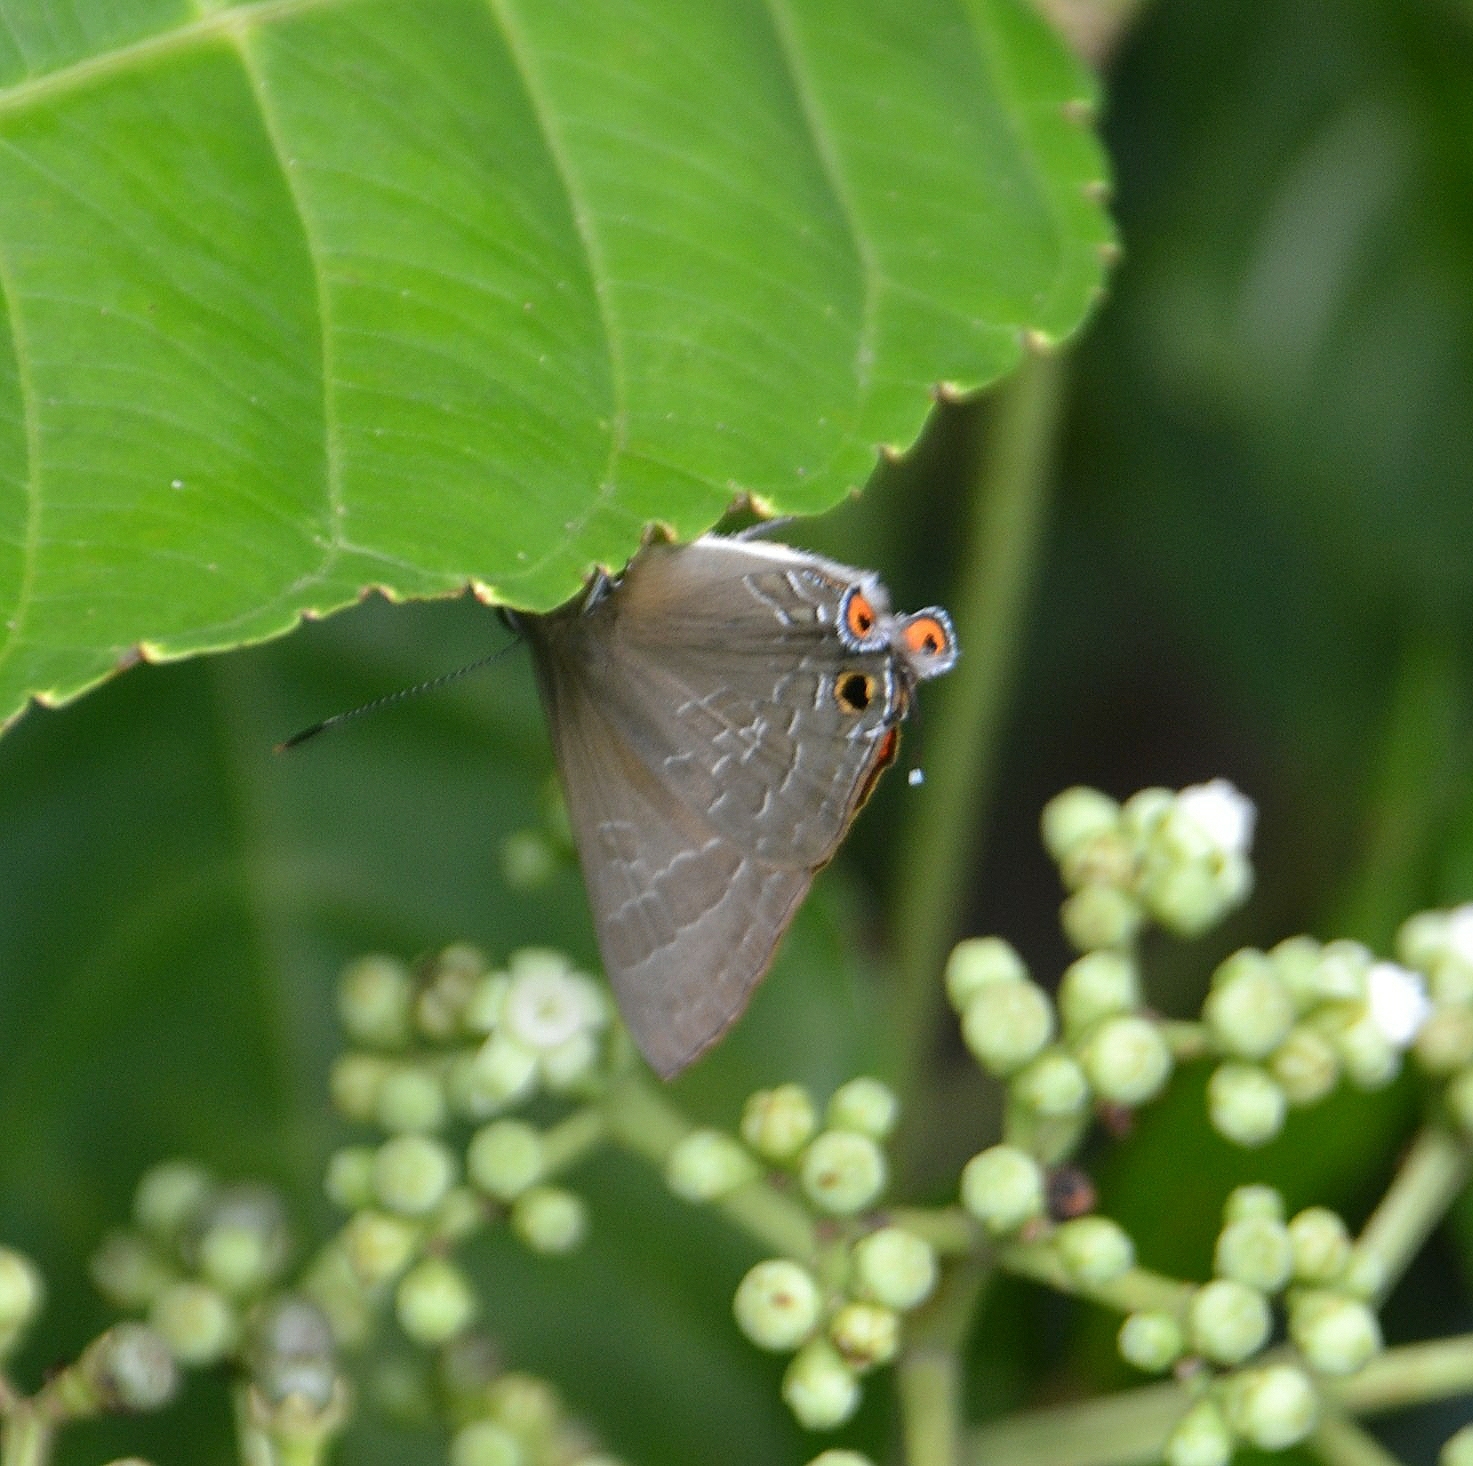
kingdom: Animalia
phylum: Arthropoda
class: Insecta
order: Lepidoptera
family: Lycaenidae
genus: Deudorix
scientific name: Deudorix epijarbas
